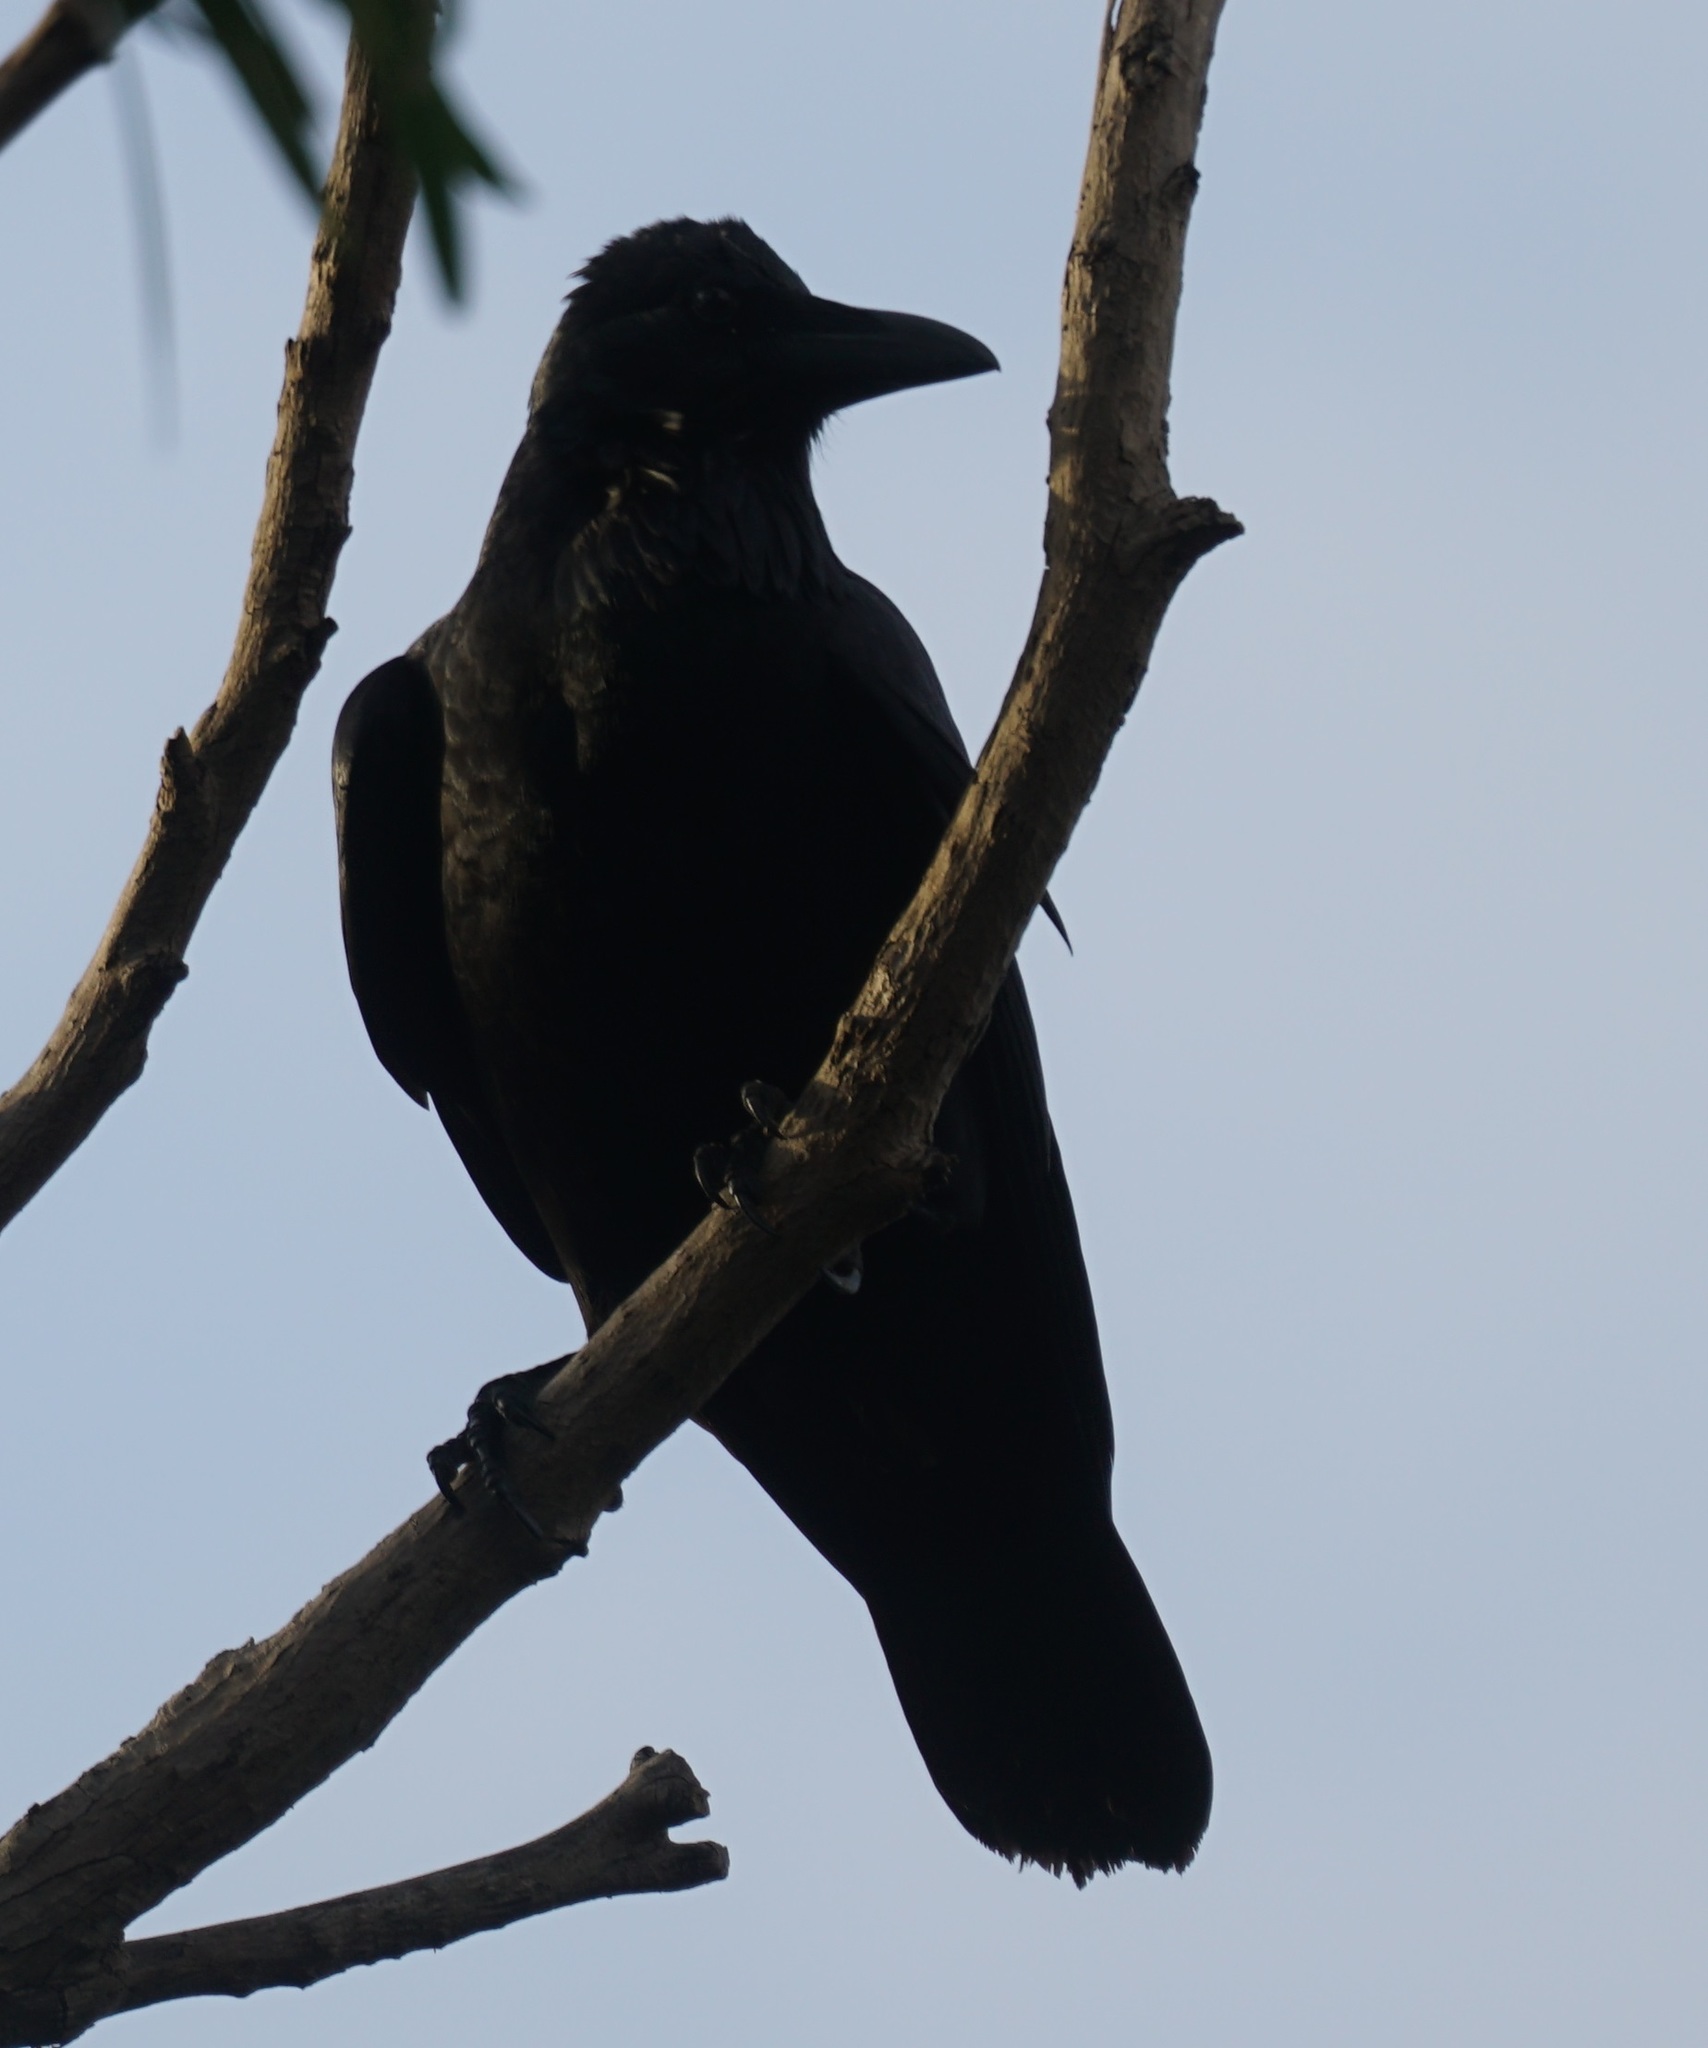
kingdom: Animalia
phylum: Chordata
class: Aves
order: Passeriformes
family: Corvidae
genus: Corvus
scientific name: Corvus coronoides
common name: Australian raven
